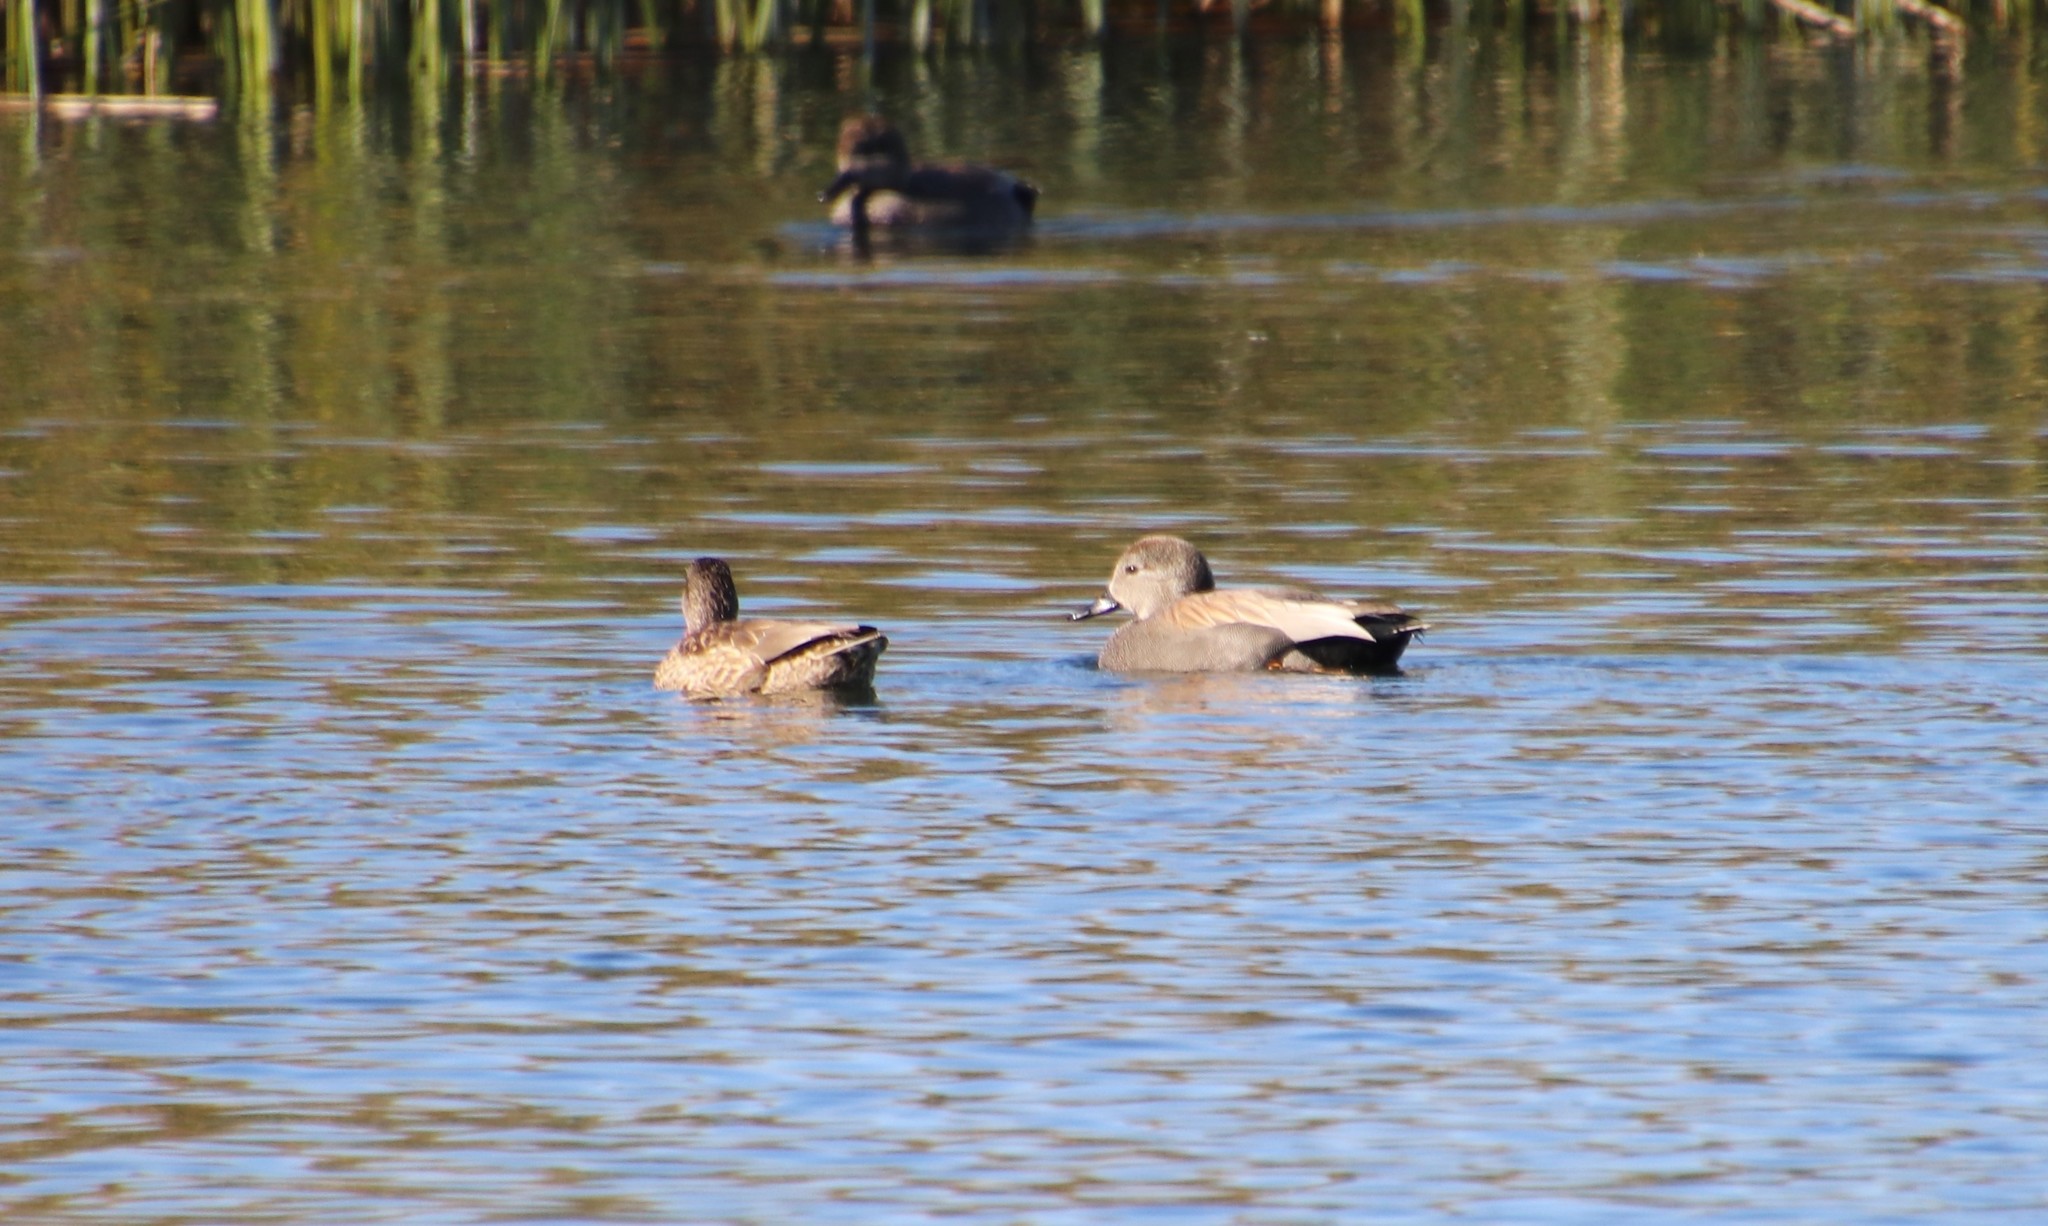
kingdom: Animalia
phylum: Chordata
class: Aves
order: Anseriformes
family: Anatidae
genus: Mareca
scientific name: Mareca strepera
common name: Gadwall
